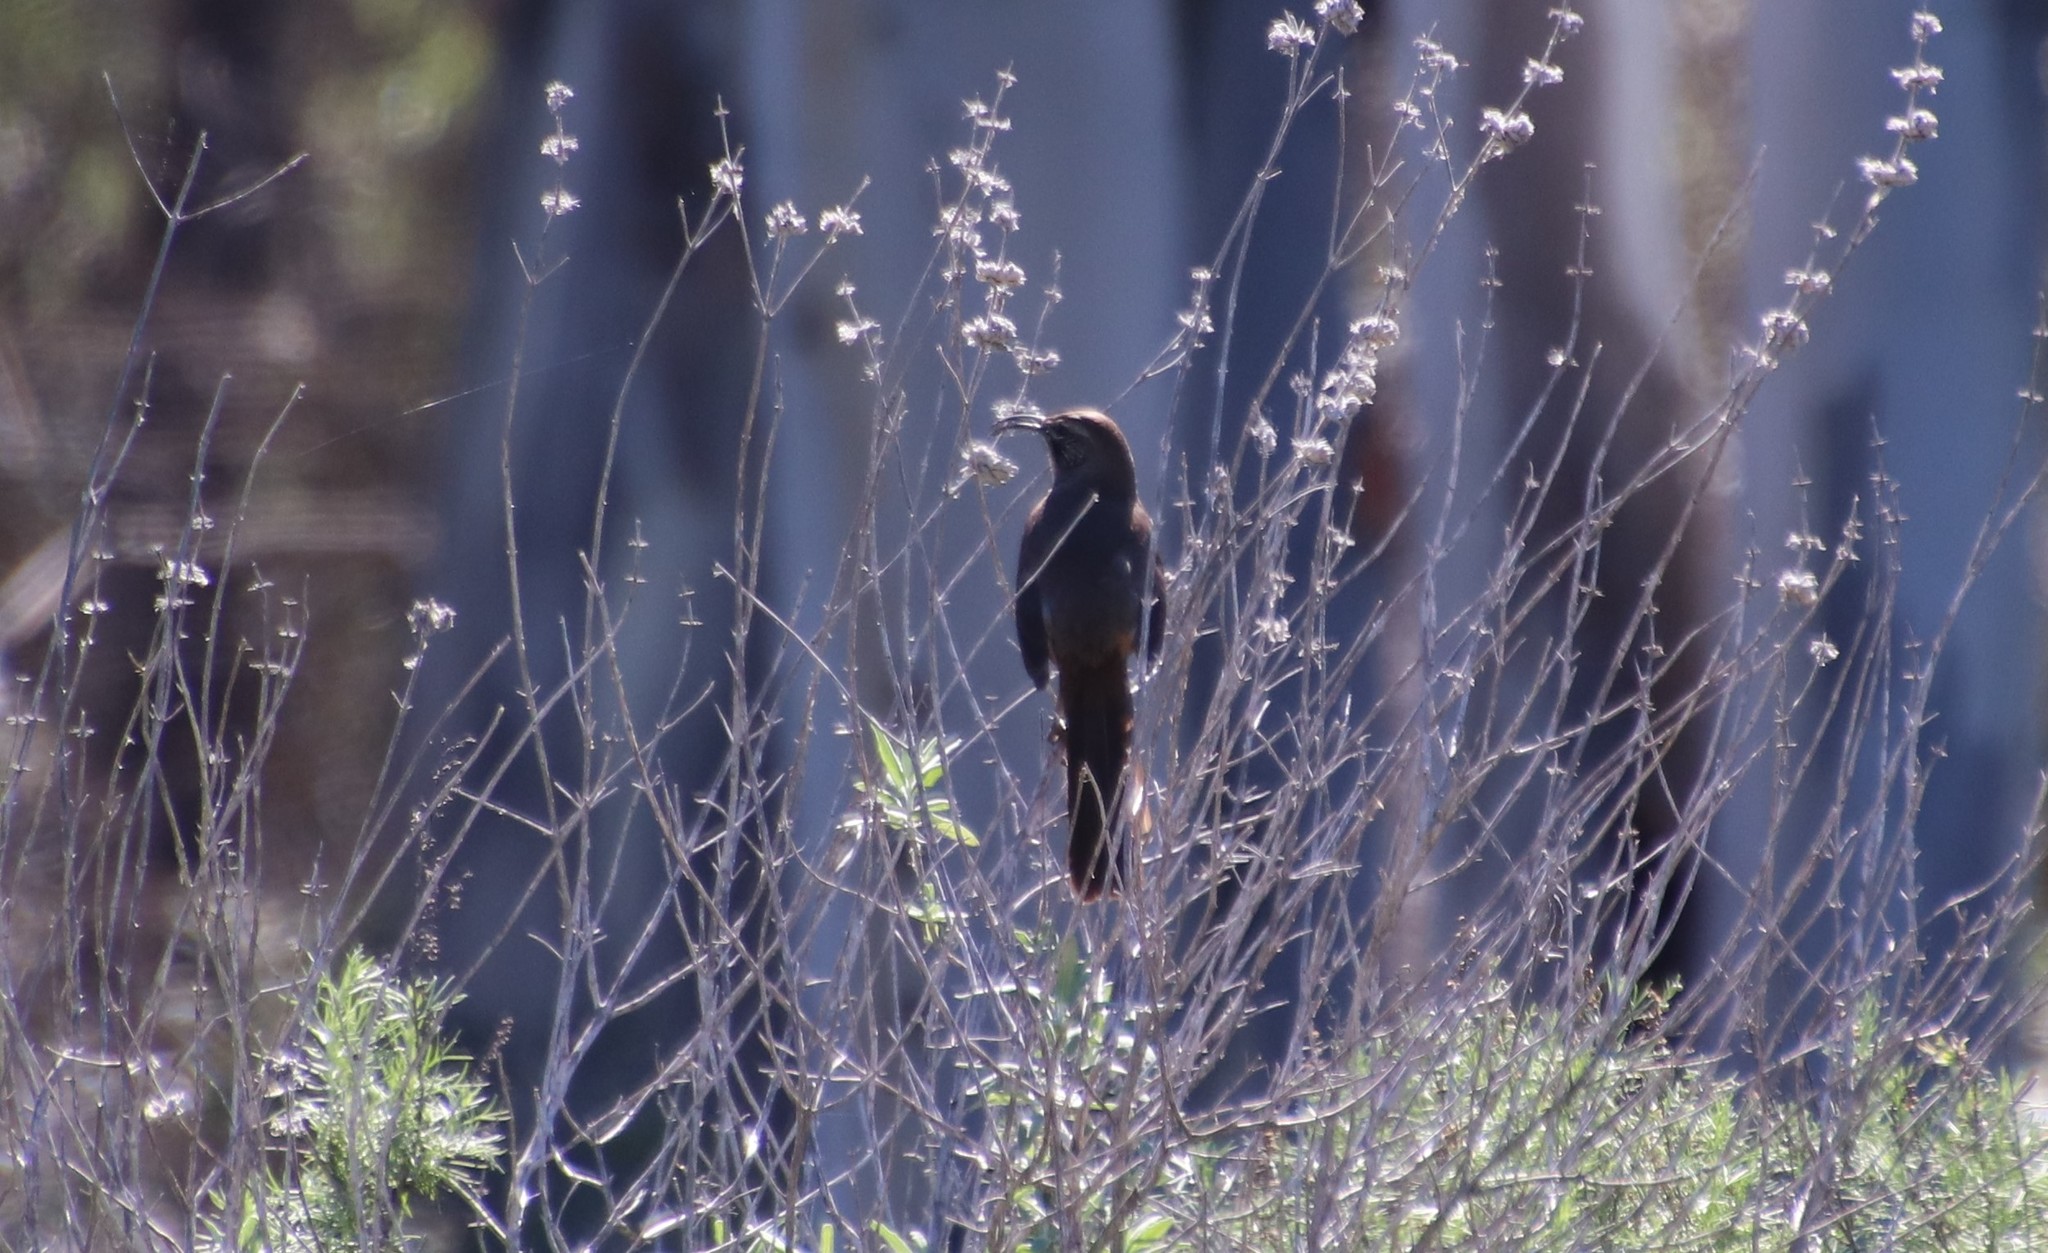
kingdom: Animalia
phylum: Chordata
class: Aves
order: Passeriformes
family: Mimidae
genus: Toxostoma
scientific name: Toxostoma redivivum
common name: California thrasher
